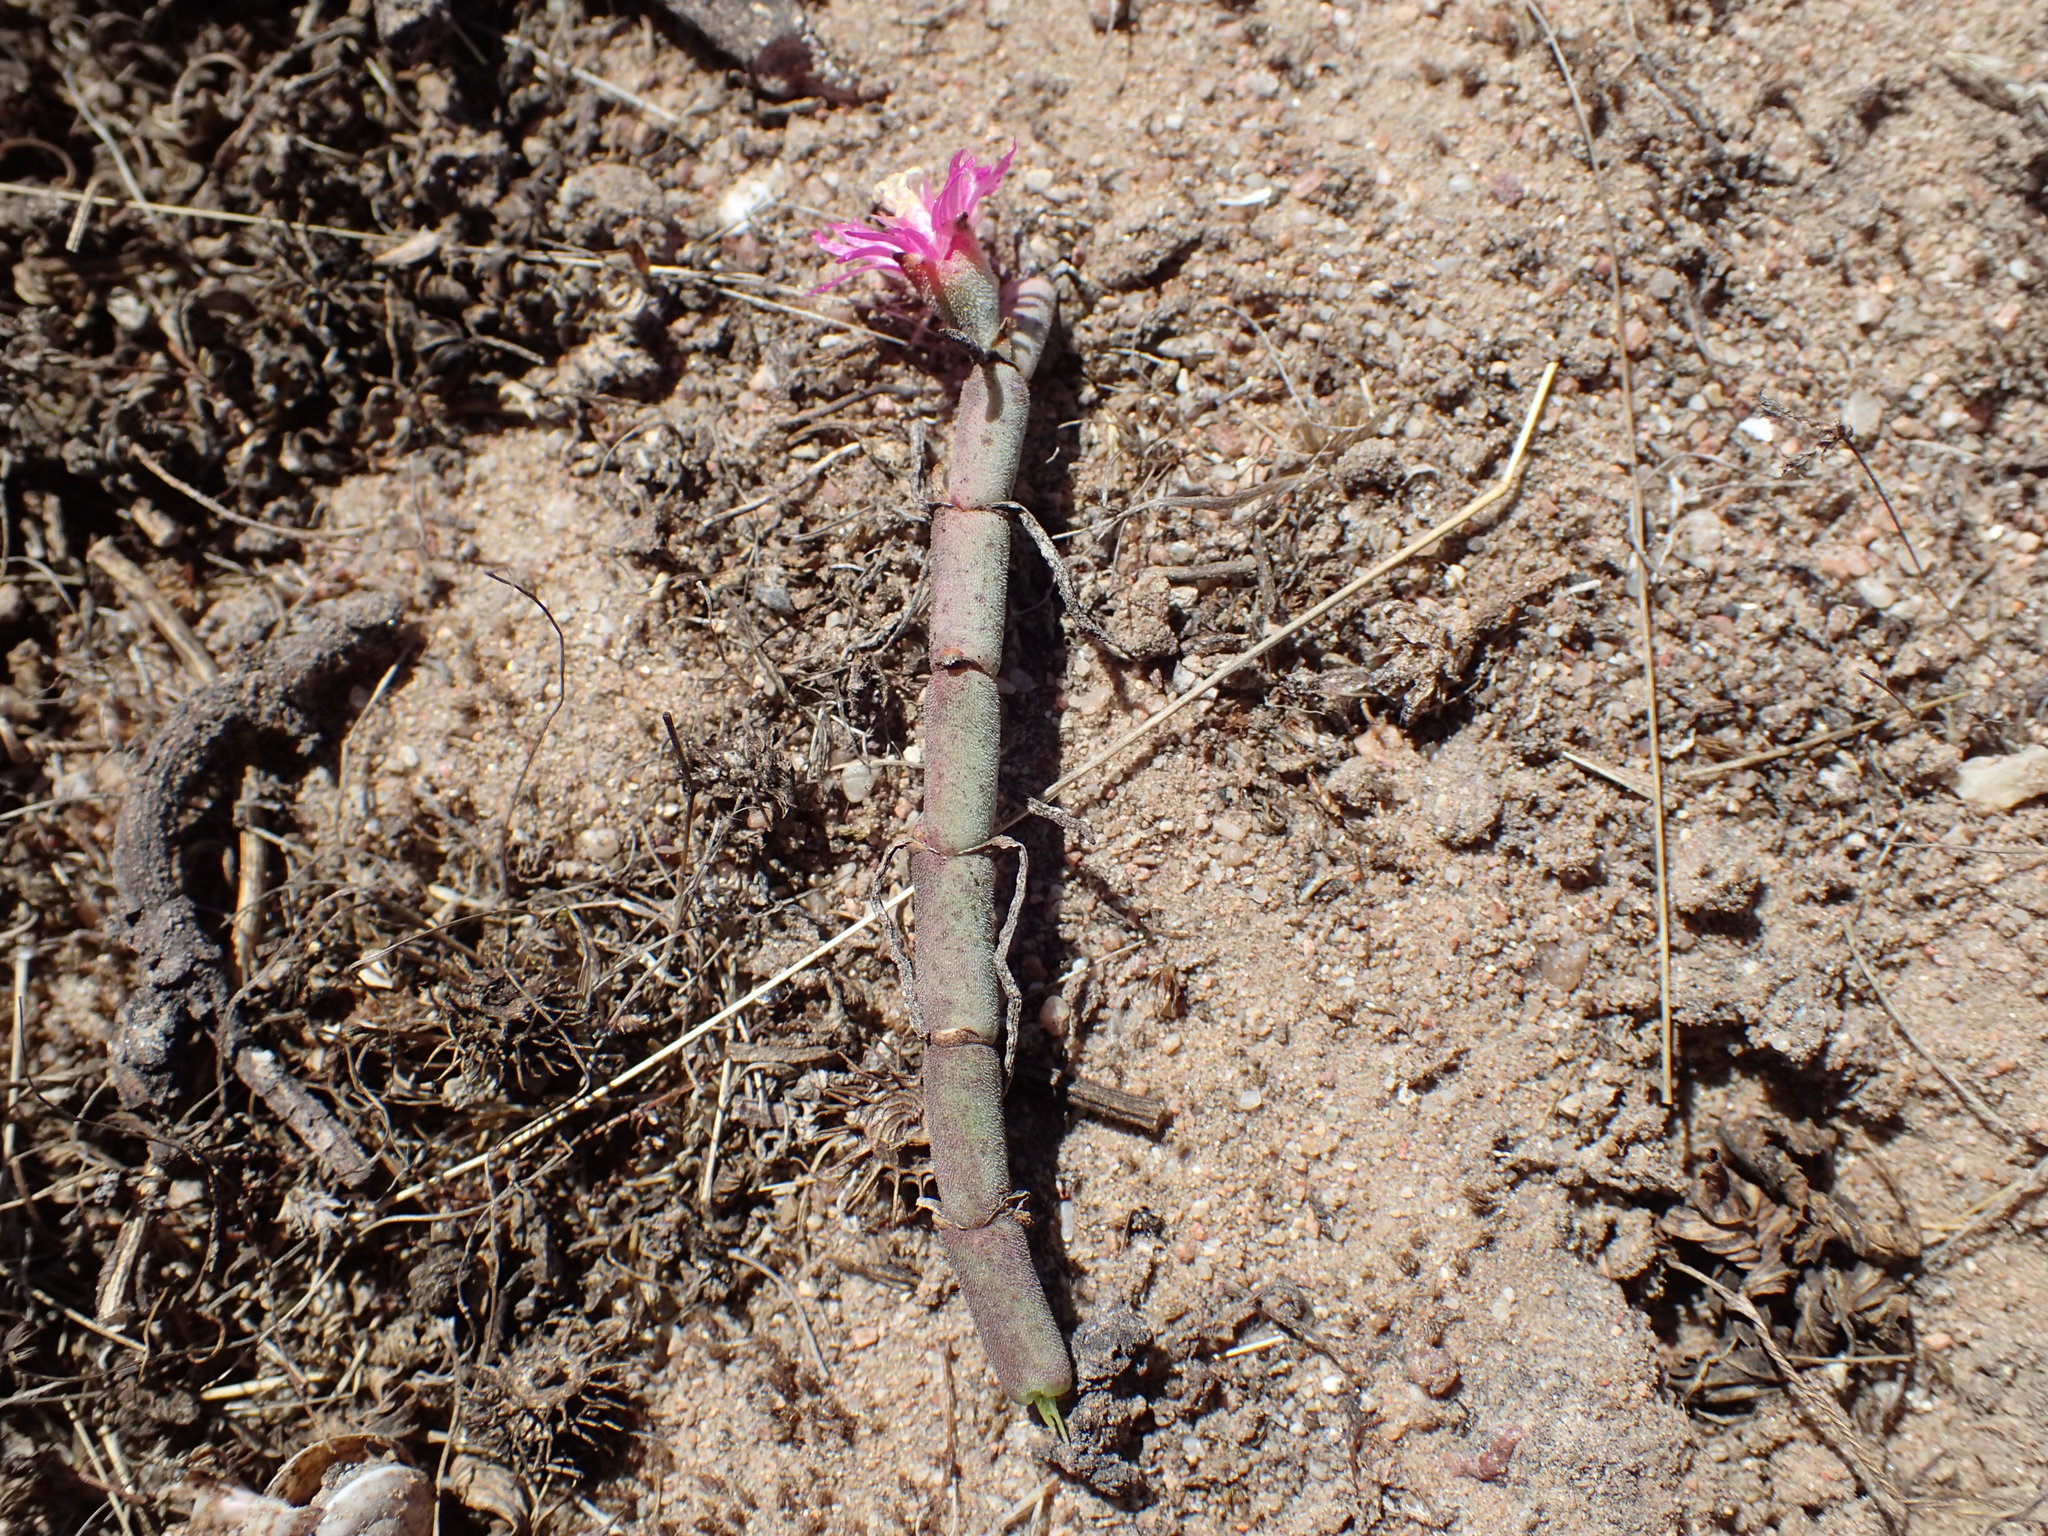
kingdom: Plantae
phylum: Tracheophyta
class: Magnoliopsida
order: Caryophyllales
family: Aizoaceae
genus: Mesembryanthemum
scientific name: Mesembryanthemum junceum
